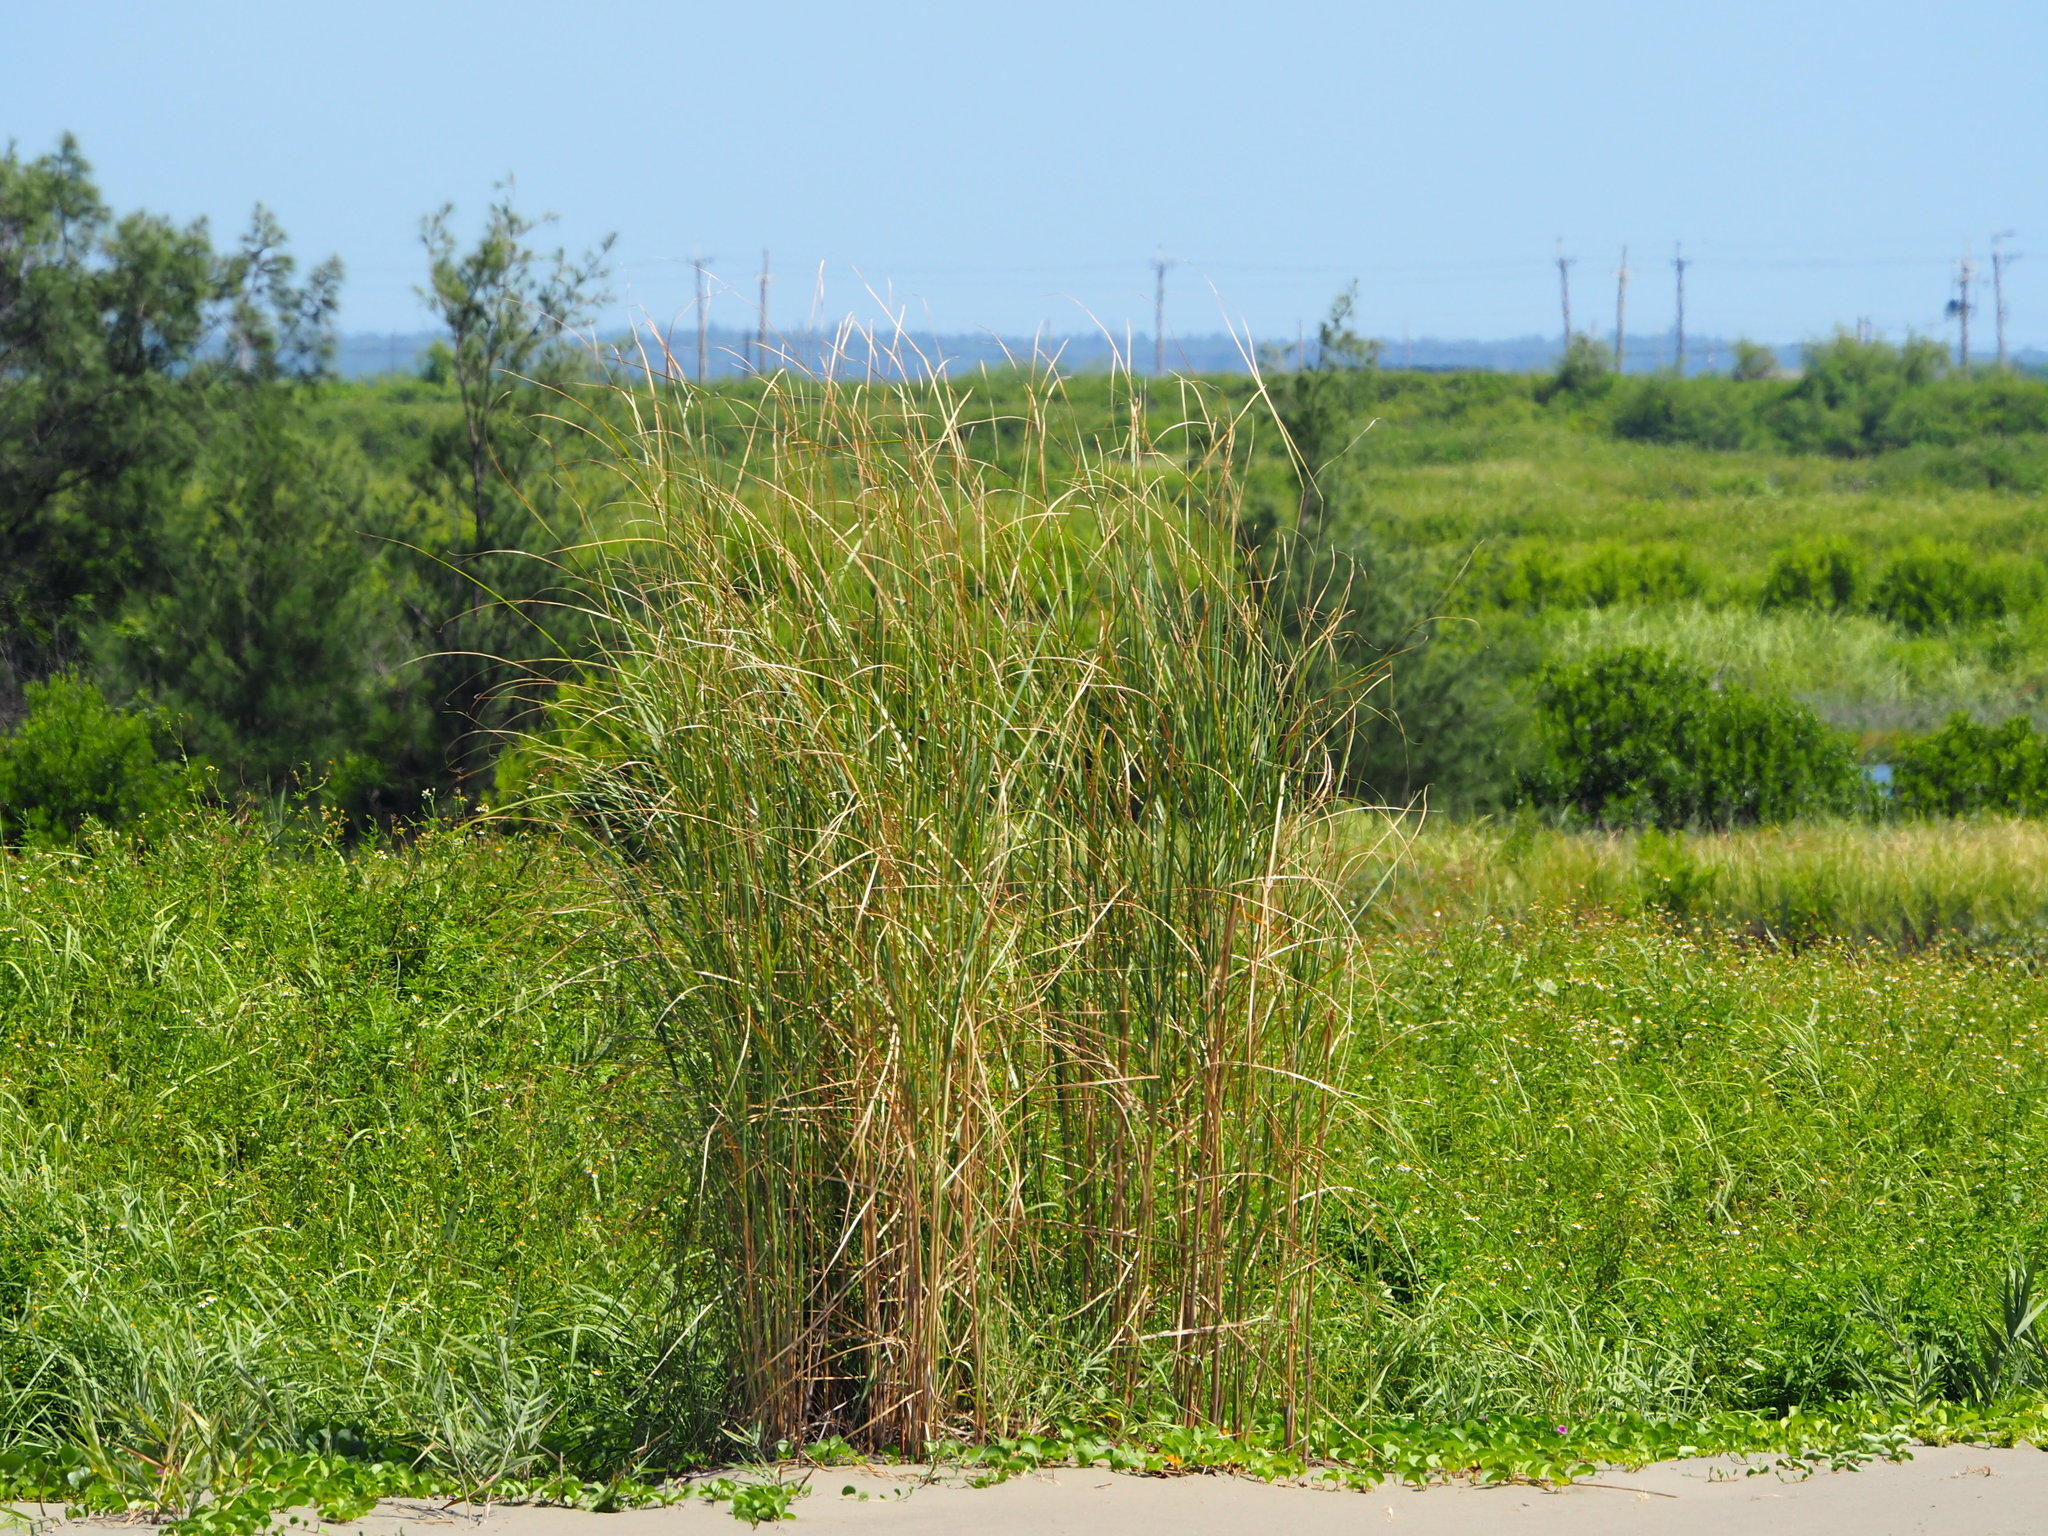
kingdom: Plantae
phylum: Tracheophyta
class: Liliopsida
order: Poales
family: Poaceae
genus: Saccharum
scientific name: Saccharum spontaneum
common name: Wild sugarcane
